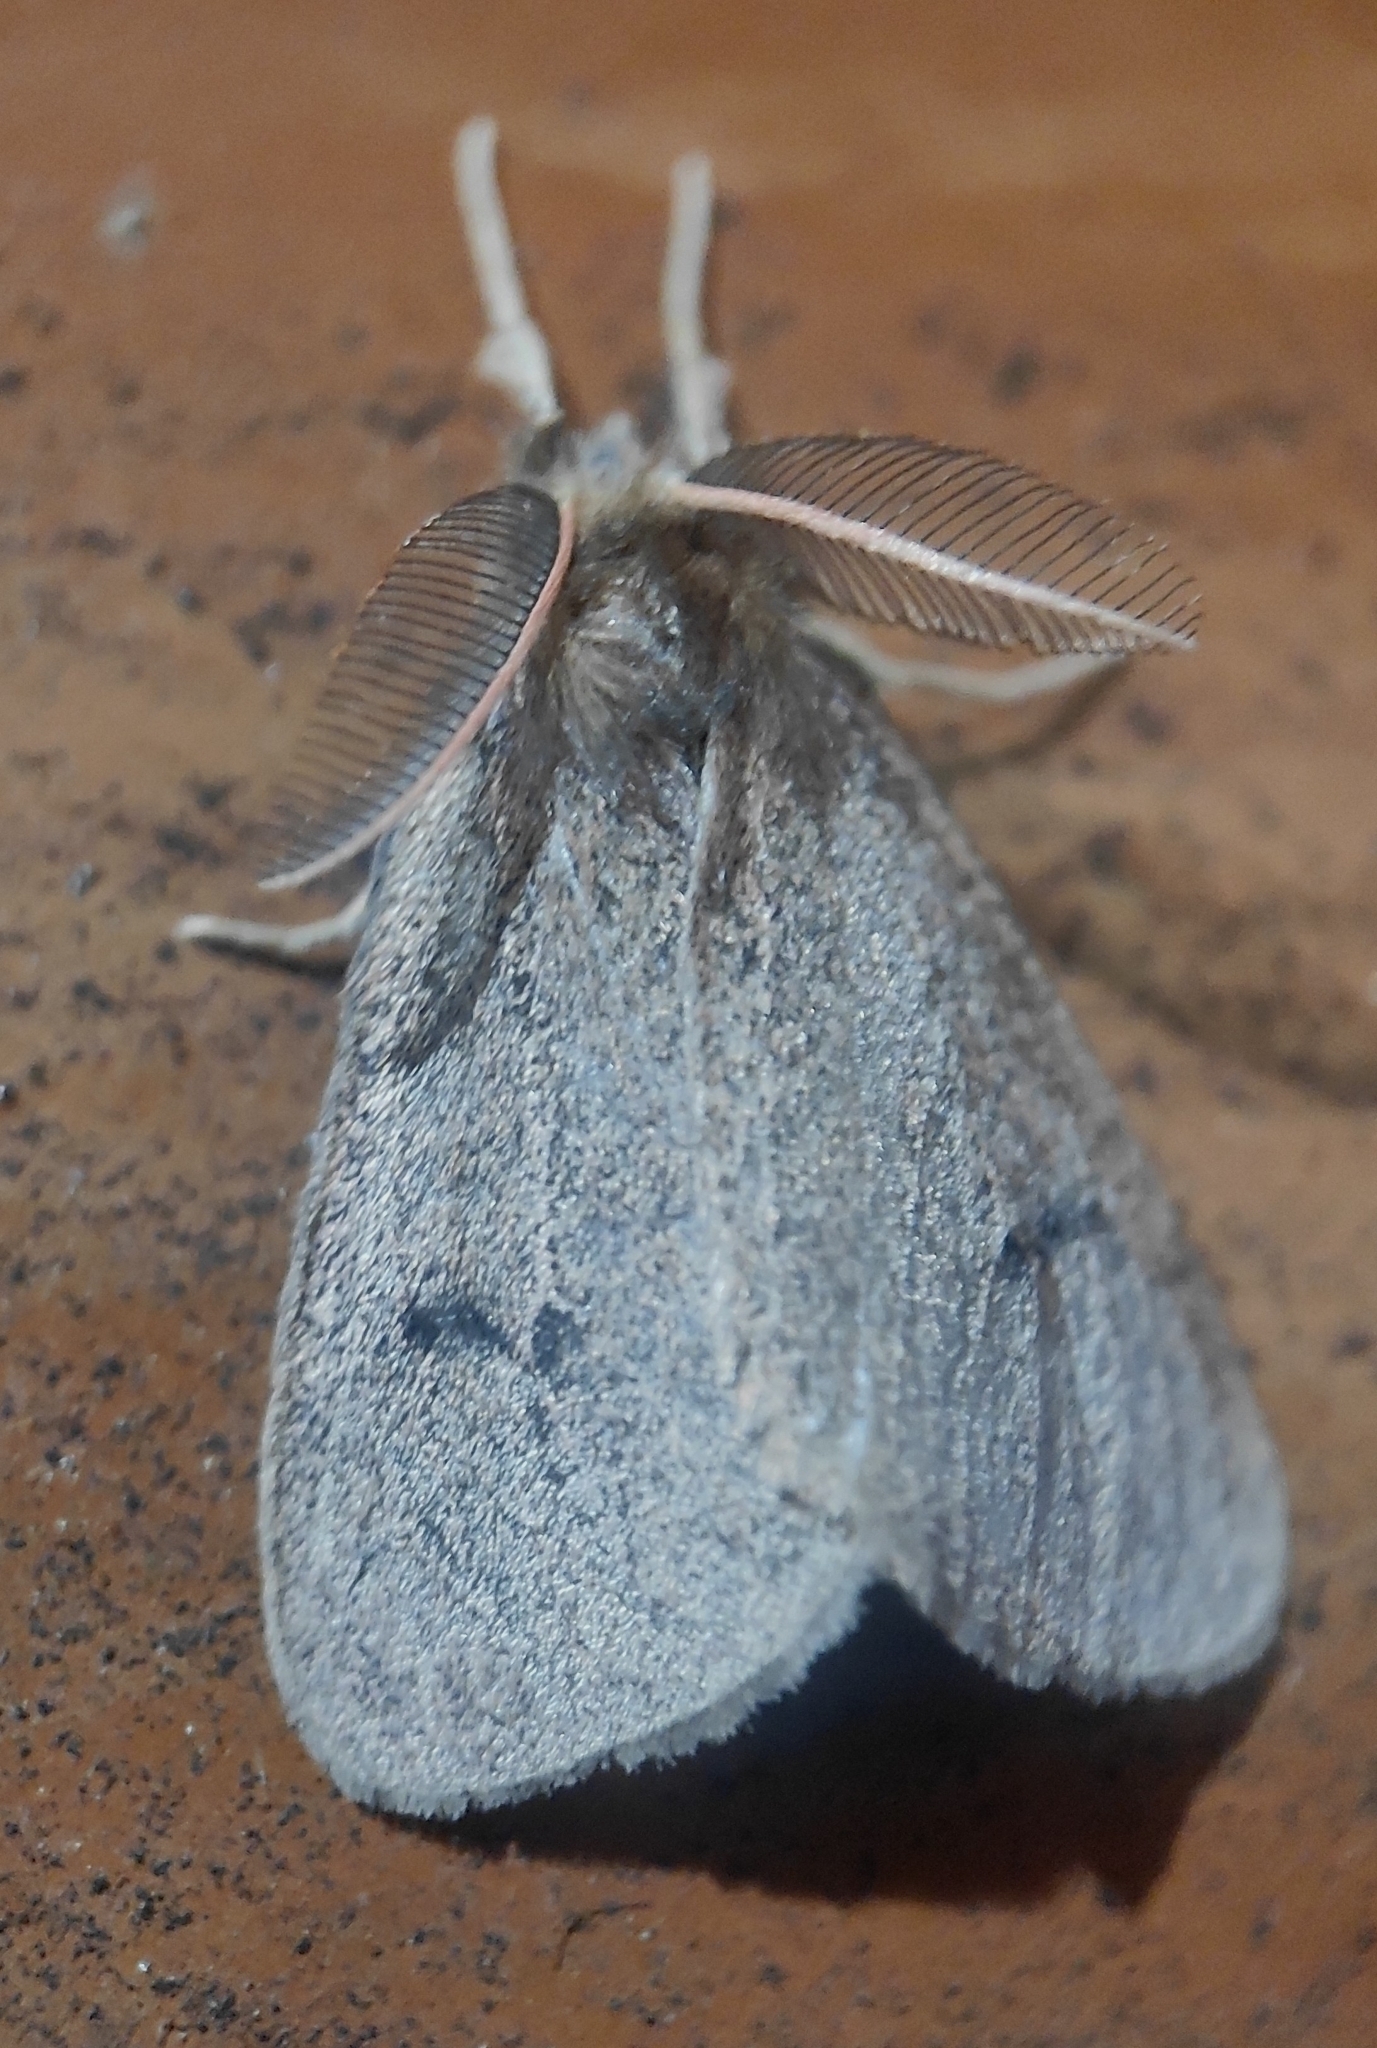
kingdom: Animalia
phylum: Arthropoda
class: Insecta
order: Lepidoptera
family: Erebidae
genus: Laelia
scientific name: Laelia exclamationis
